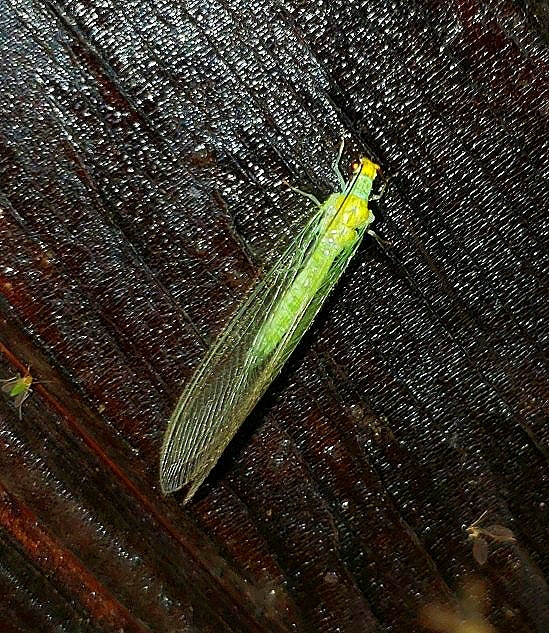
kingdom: Animalia
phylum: Arthropoda
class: Insecta
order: Neuroptera
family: Chrysopidae
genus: Leucochrysa
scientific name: Leucochrysa pavida
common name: Lichen-carrying green lacewing
